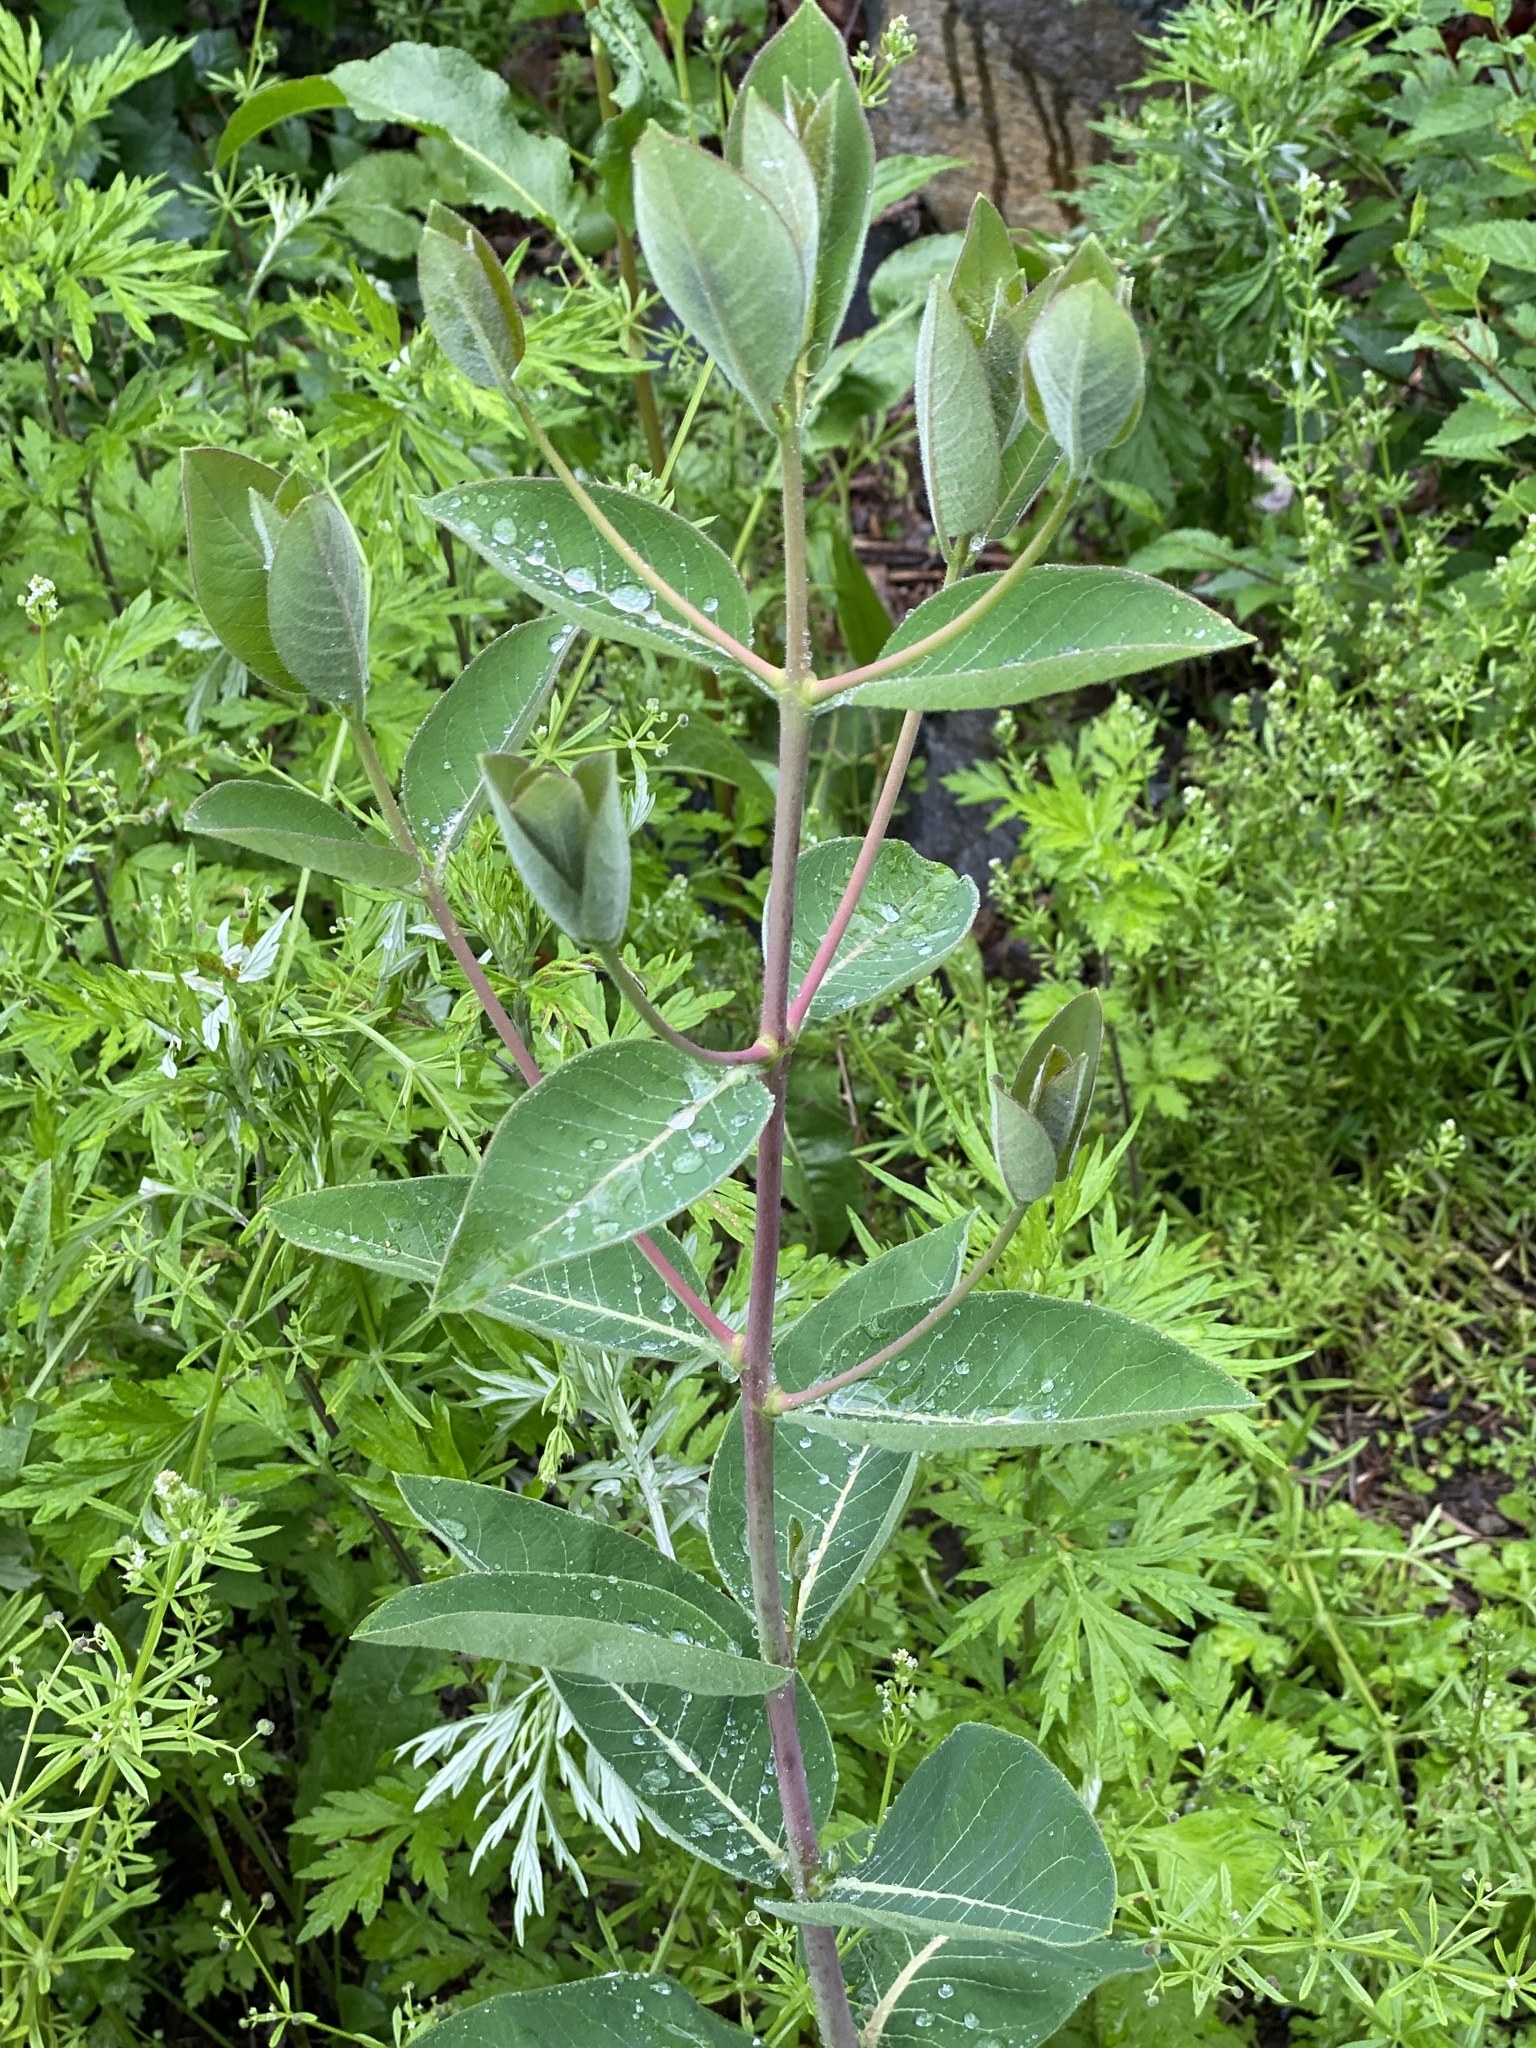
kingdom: Plantae
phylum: Tracheophyta
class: Magnoliopsida
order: Gentianales
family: Apocynaceae
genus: Apocynum
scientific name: Apocynum cannabinum
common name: Hemp dogbane
